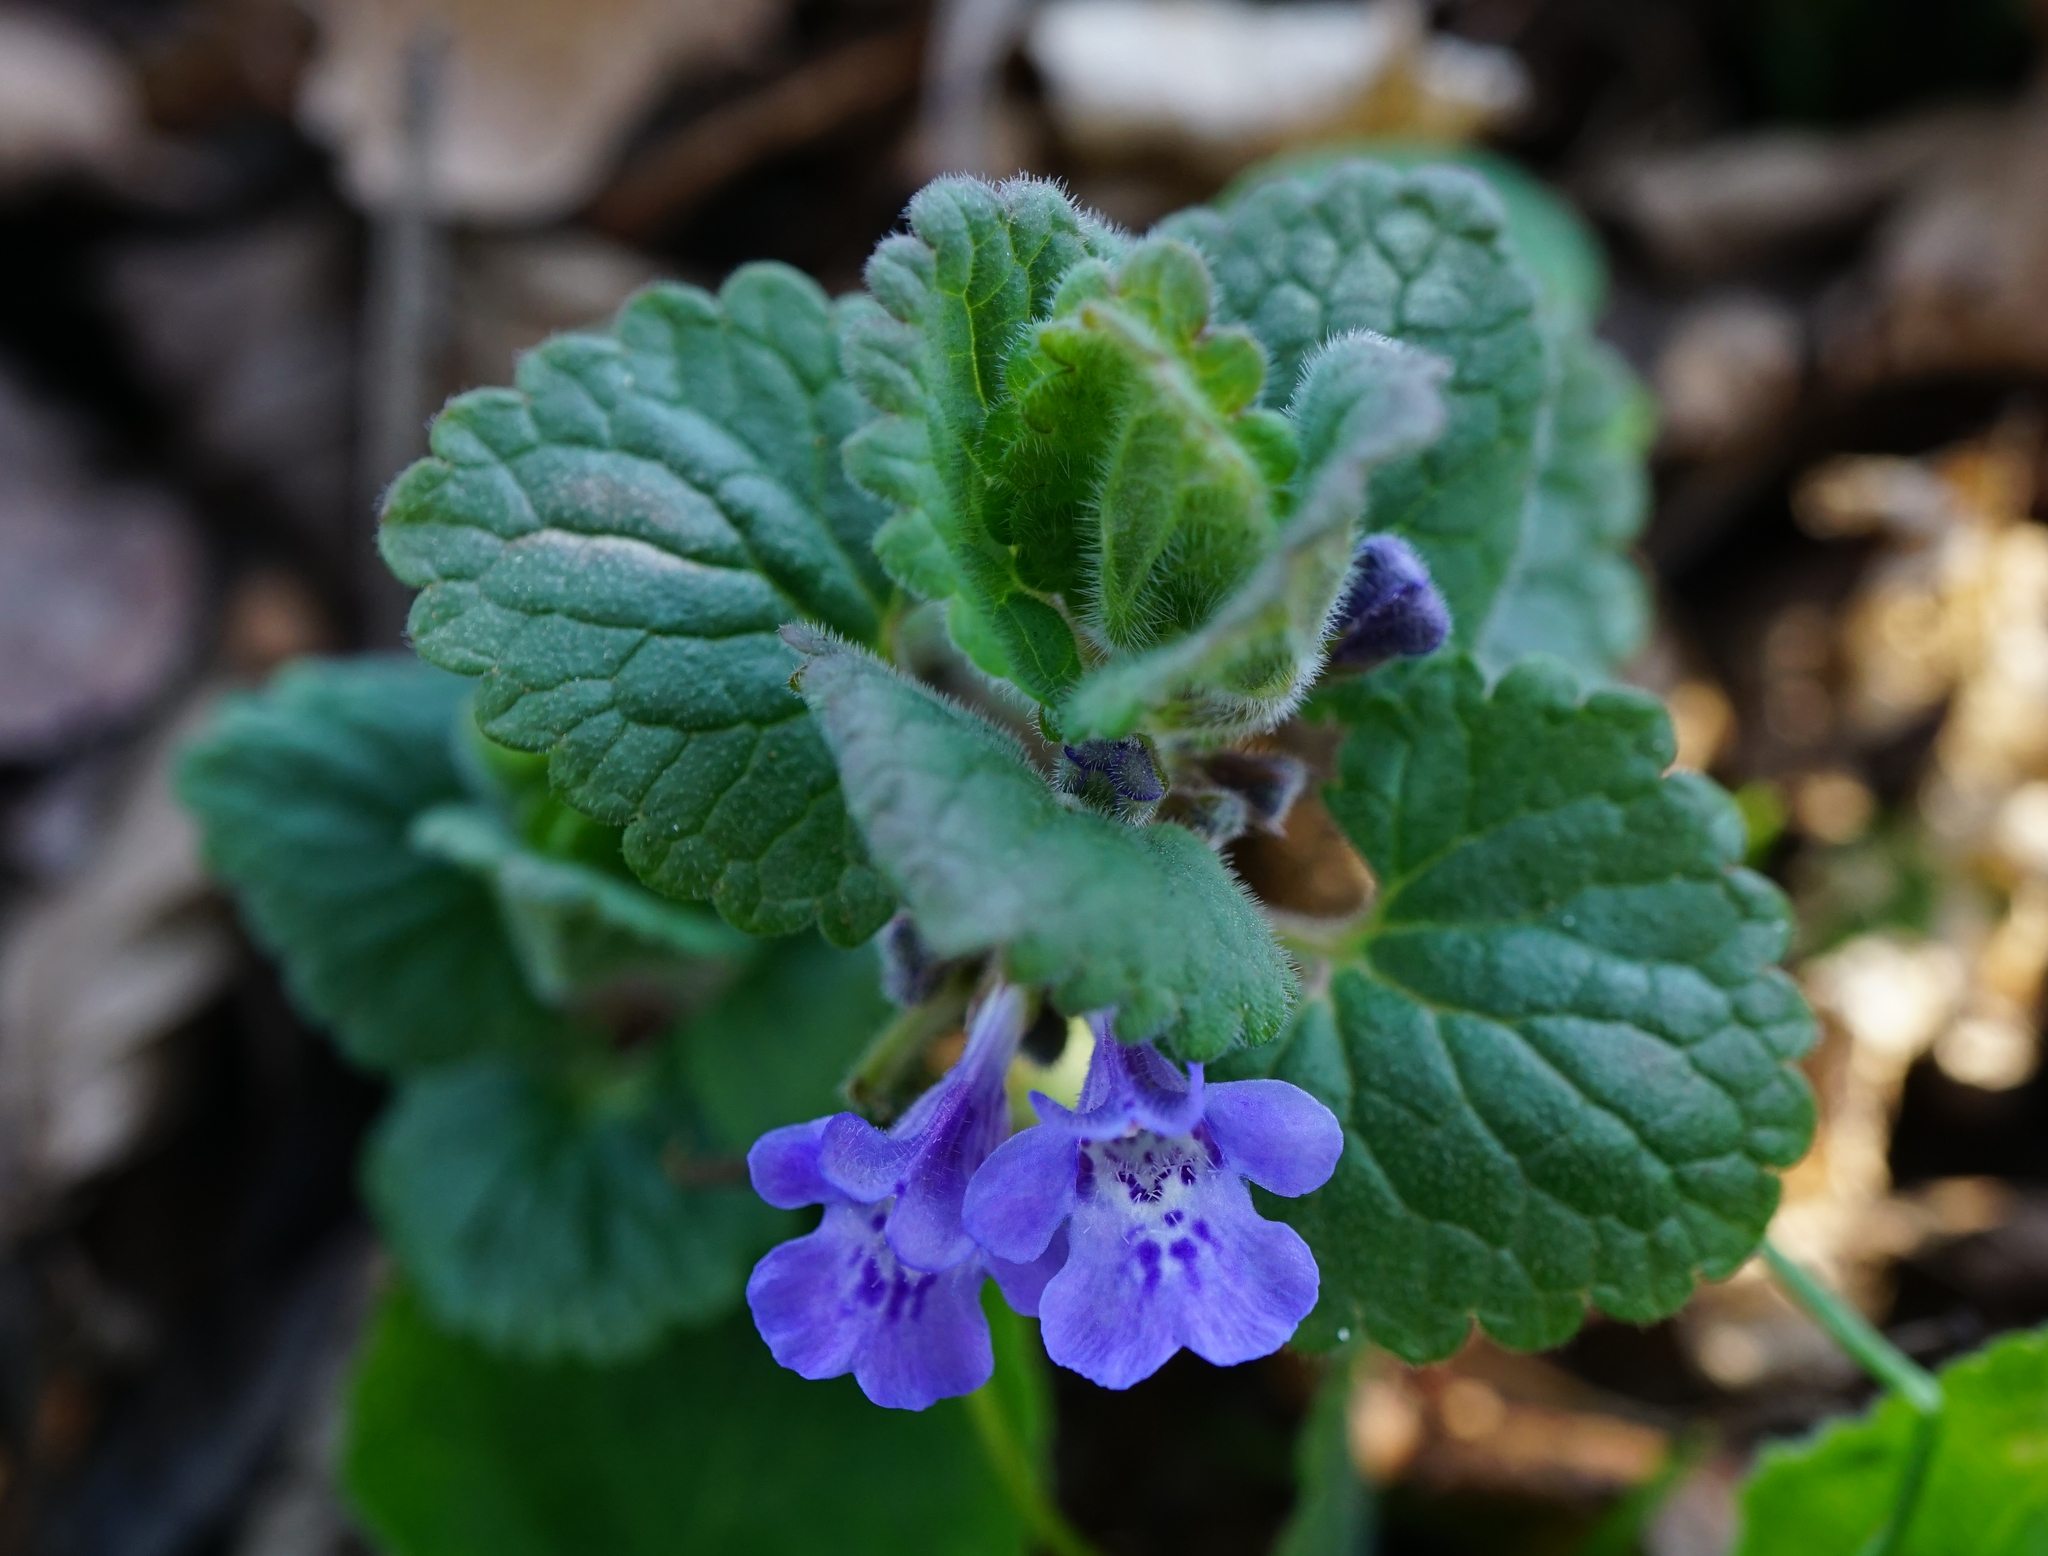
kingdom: Plantae
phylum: Tracheophyta
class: Magnoliopsida
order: Lamiales
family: Lamiaceae
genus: Glechoma
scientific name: Glechoma hederacea
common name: Ground ivy
